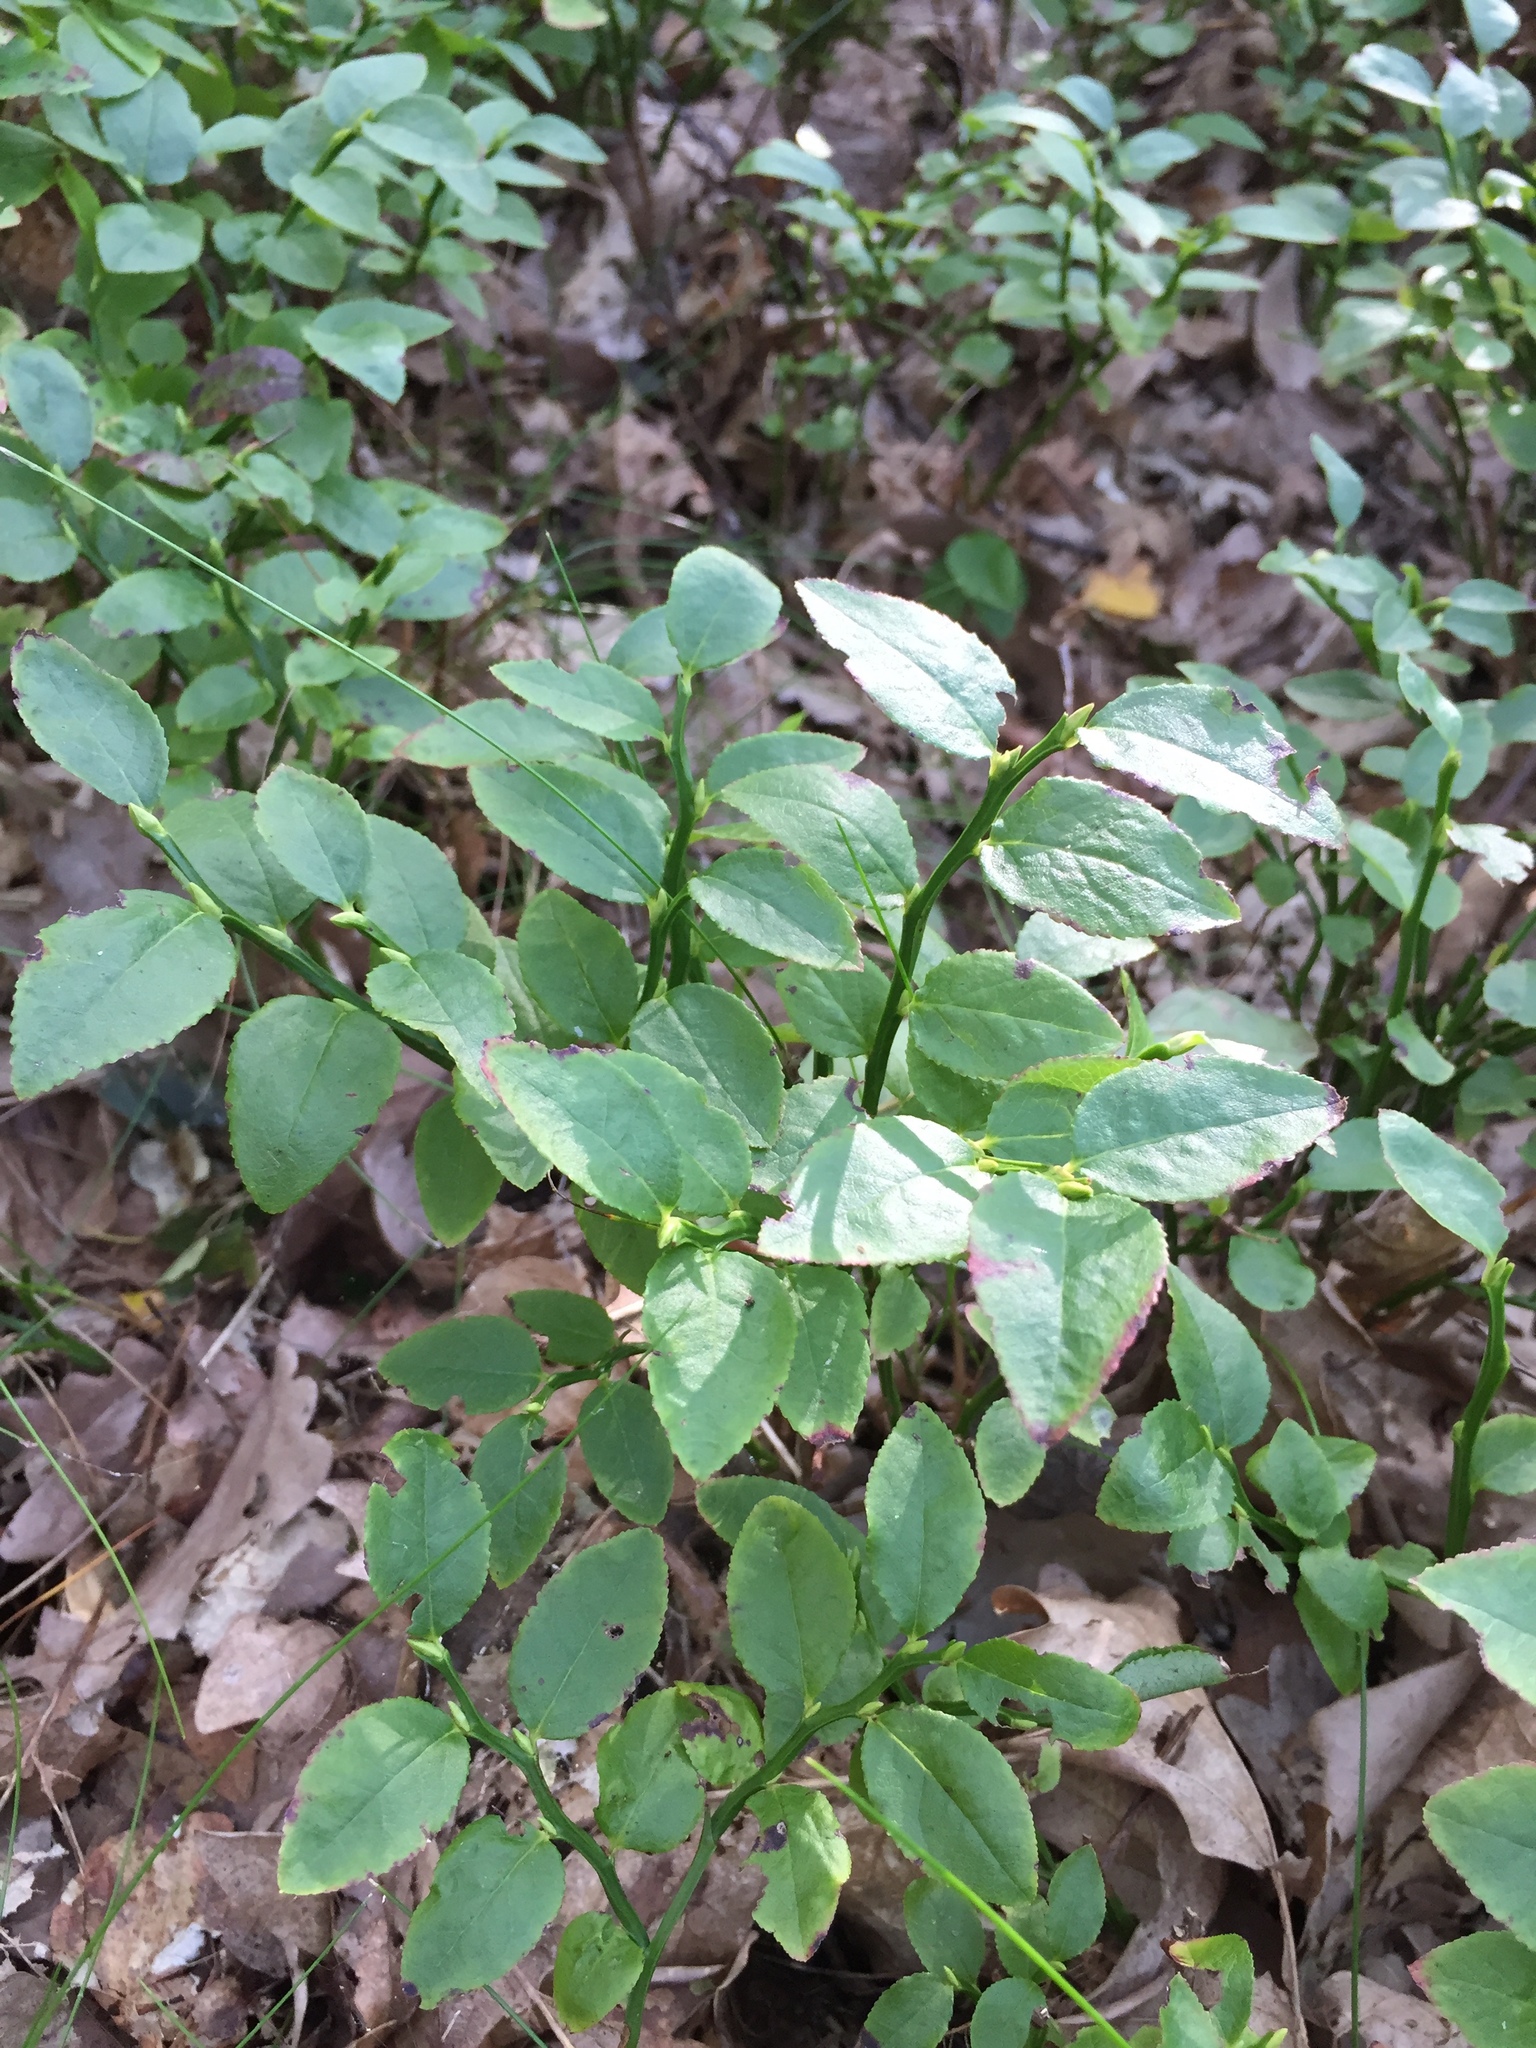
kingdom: Plantae
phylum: Tracheophyta
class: Magnoliopsida
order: Ericales
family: Ericaceae
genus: Vaccinium
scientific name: Vaccinium myrtillus
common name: Bilberry
